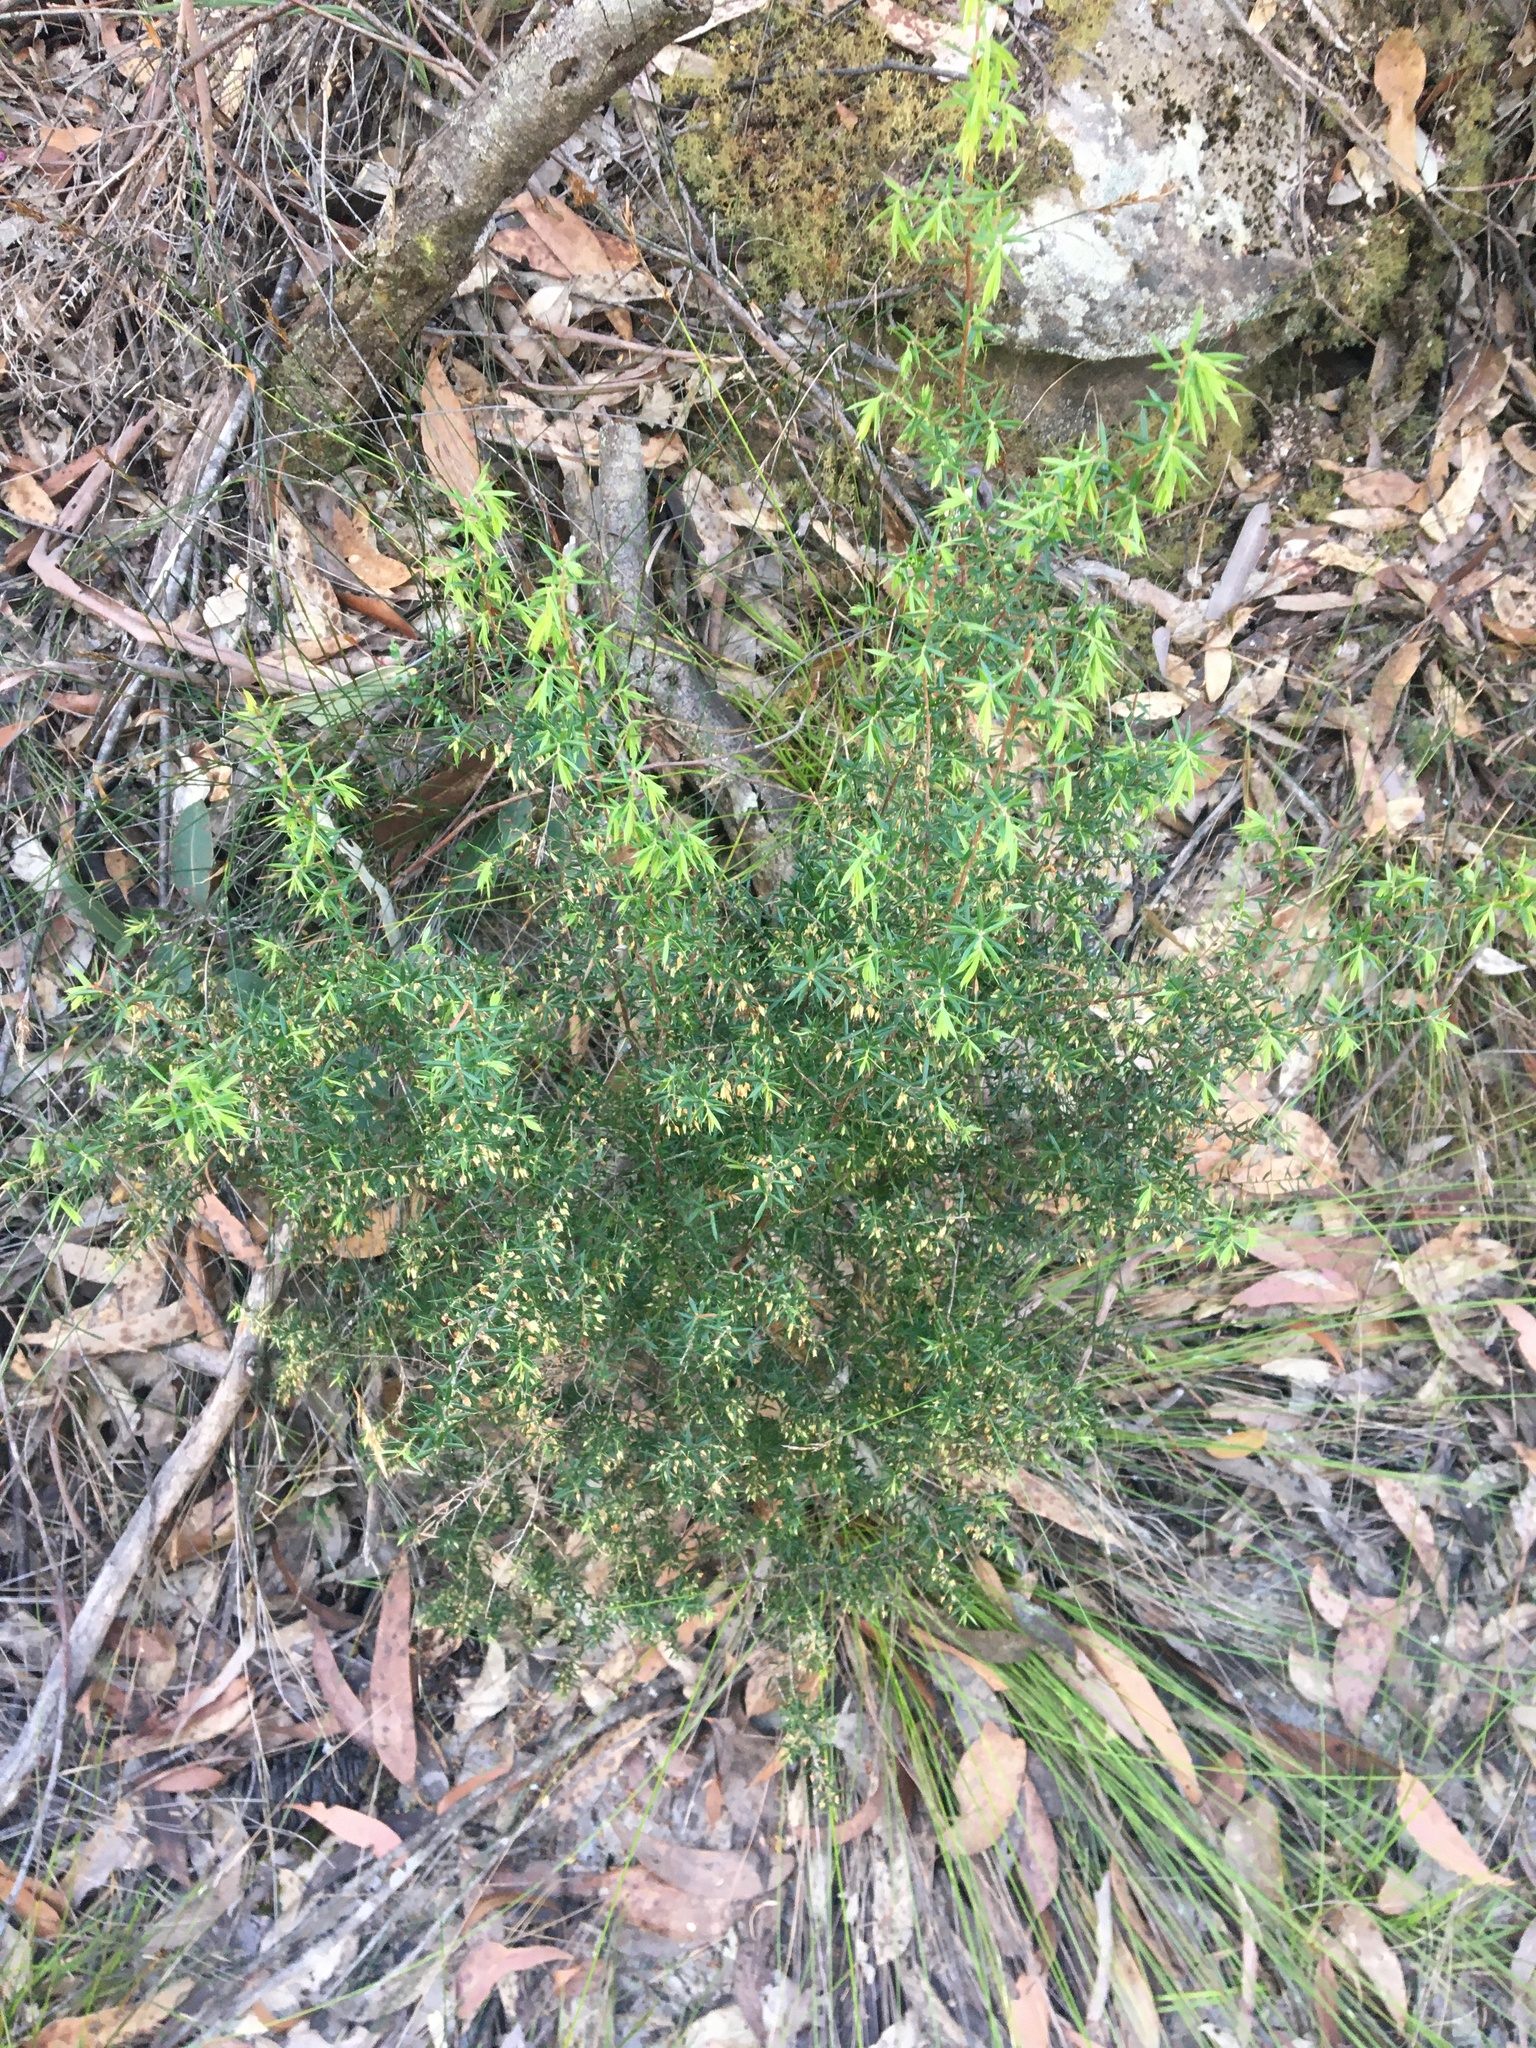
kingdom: Plantae
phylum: Tracheophyta
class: Magnoliopsida
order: Ericales
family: Ericaceae
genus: Styphelia
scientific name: Styphelia setigera
